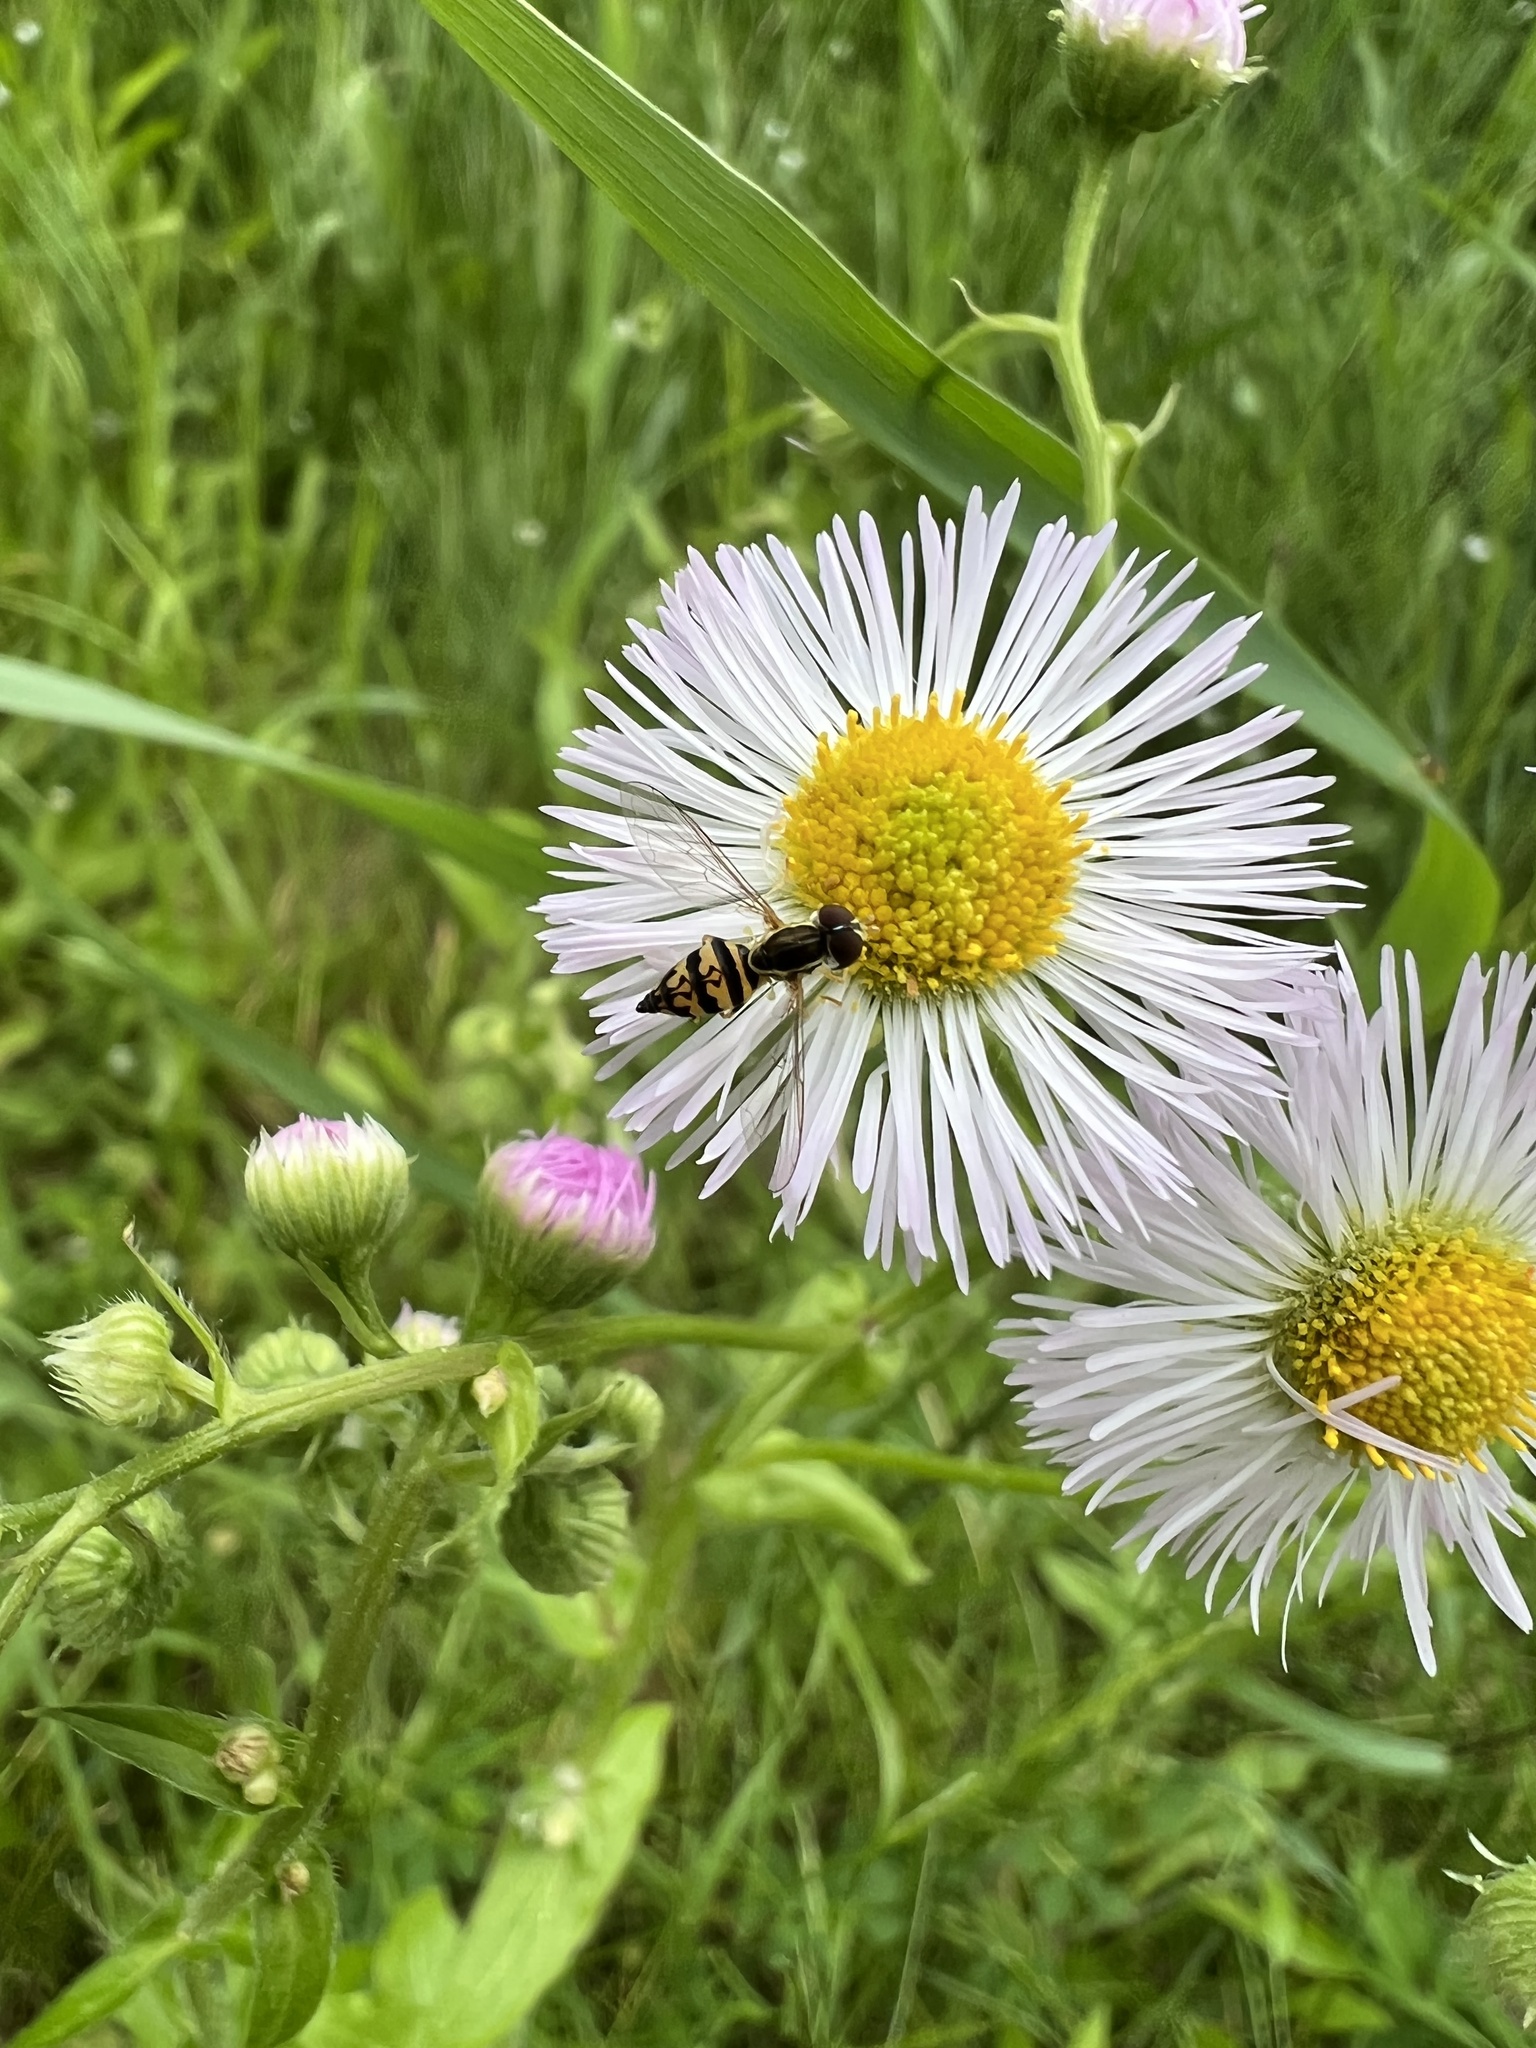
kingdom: Animalia
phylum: Arthropoda
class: Insecta
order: Diptera
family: Syrphidae
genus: Toxomerus
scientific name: Toxomerus geminatus
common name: Eastern calligrapher
